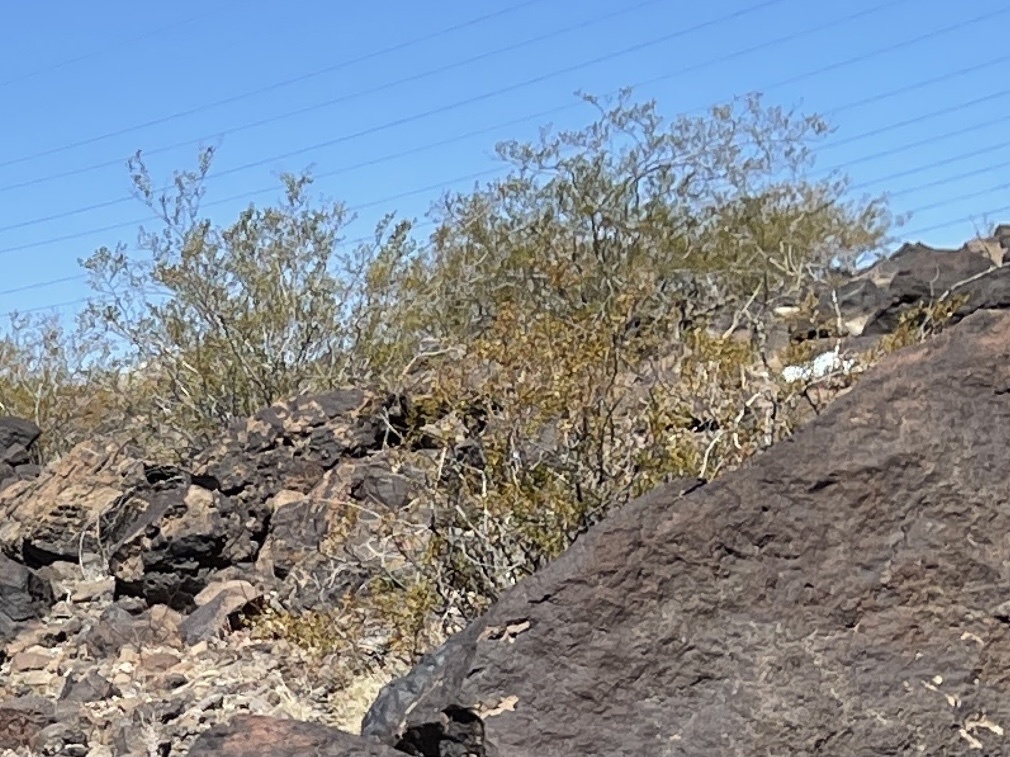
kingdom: Plantae
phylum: Tracheophyta
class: Magnoliopsida
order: Zygophyllales
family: Zygophyllaceae
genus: Larrea
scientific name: Larrea tridentata
